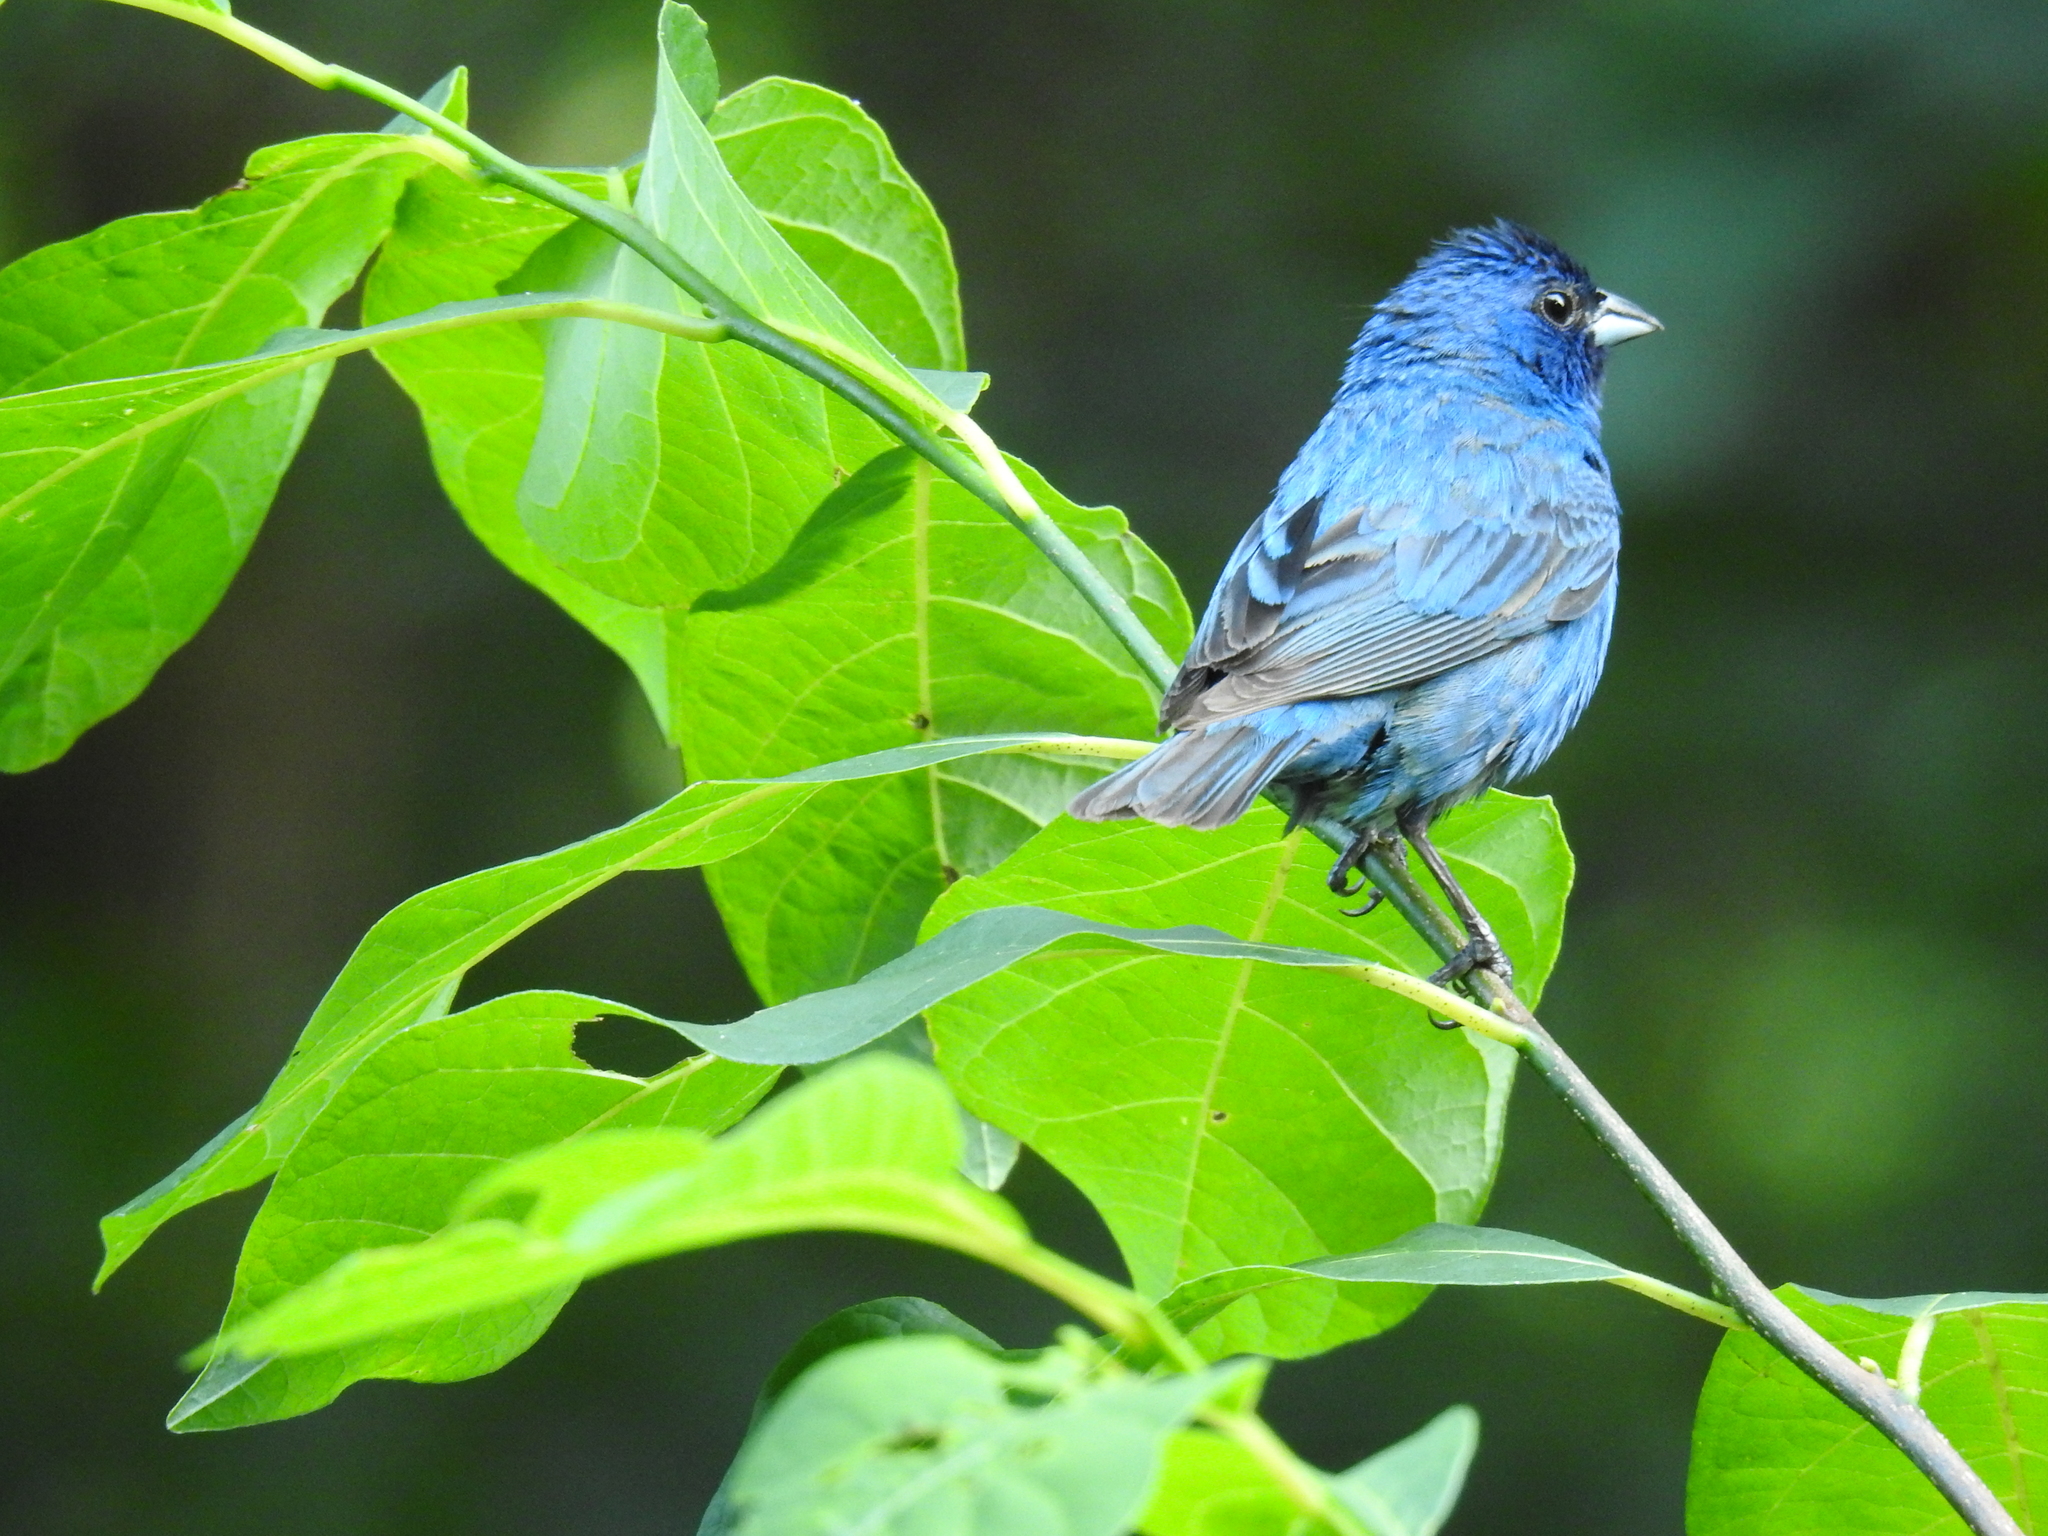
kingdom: Animalia
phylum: Chordata
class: Aves
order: Passeriformes
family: Cardinalidae
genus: Passerina
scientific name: Passerina cyanea
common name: Indigo bunting
